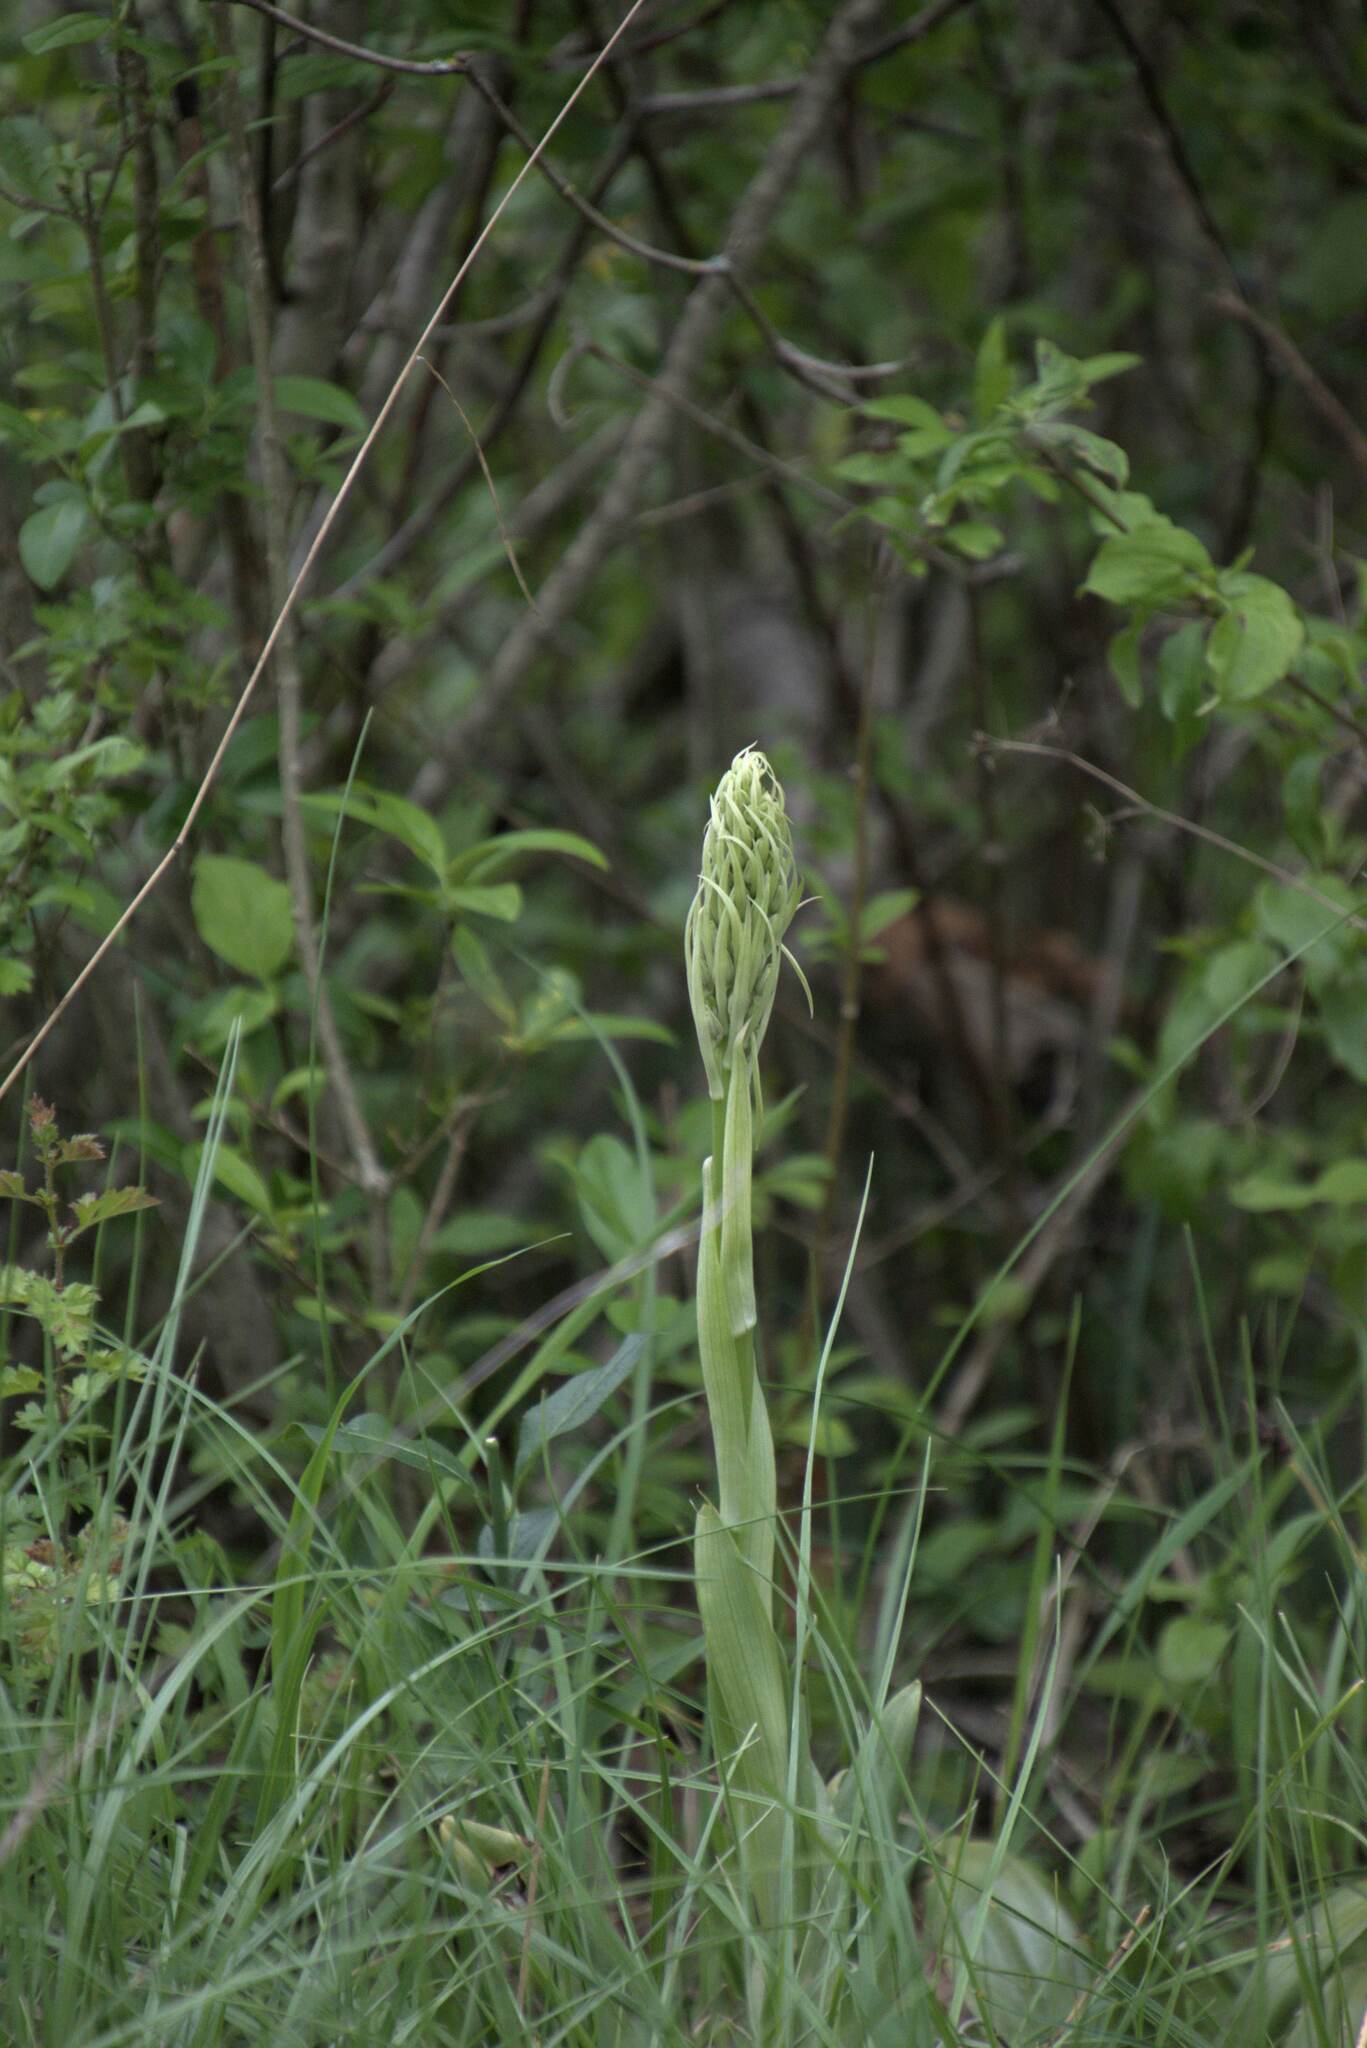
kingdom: Plantae
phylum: Tracheophyta
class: Liliopsida
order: Asparagales
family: Orchidaceae
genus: Himantoglossum
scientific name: Himantoglossum hircinum
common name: Lizard orchid
